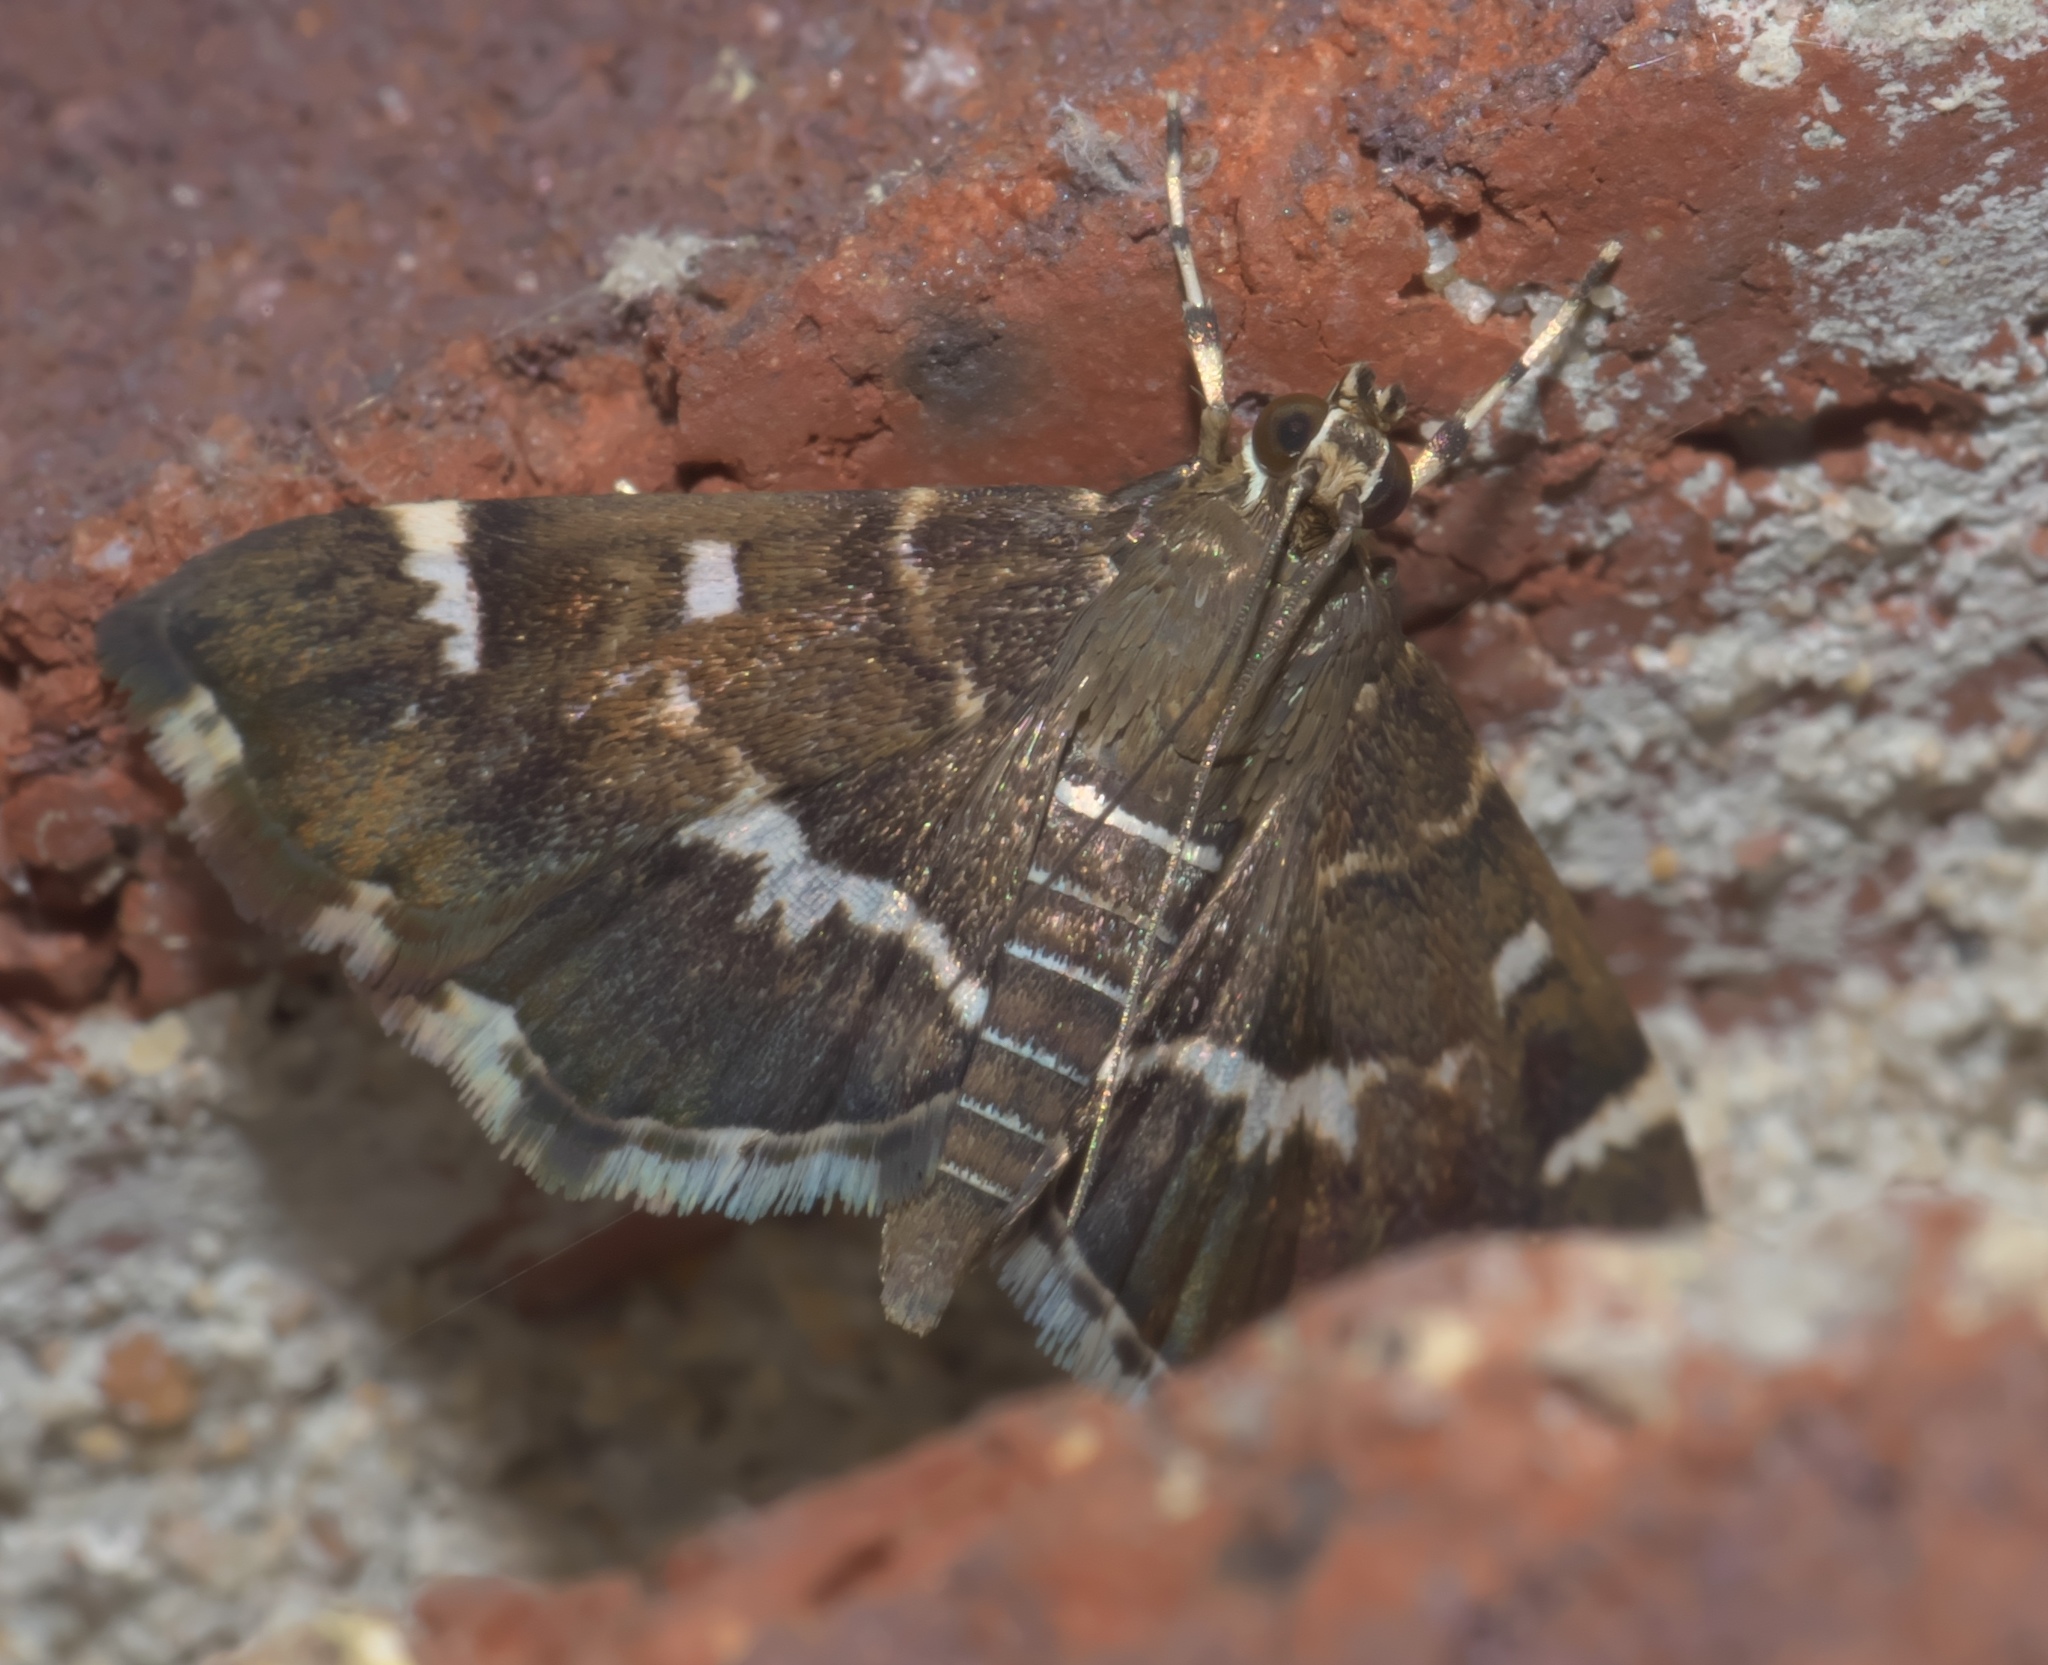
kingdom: Animalia
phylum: Arthropoda
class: Insecta
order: Lepidoptera
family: Crambidae
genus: Hymenia
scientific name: Hymenia perspectalis
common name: Spotted beet webworm
